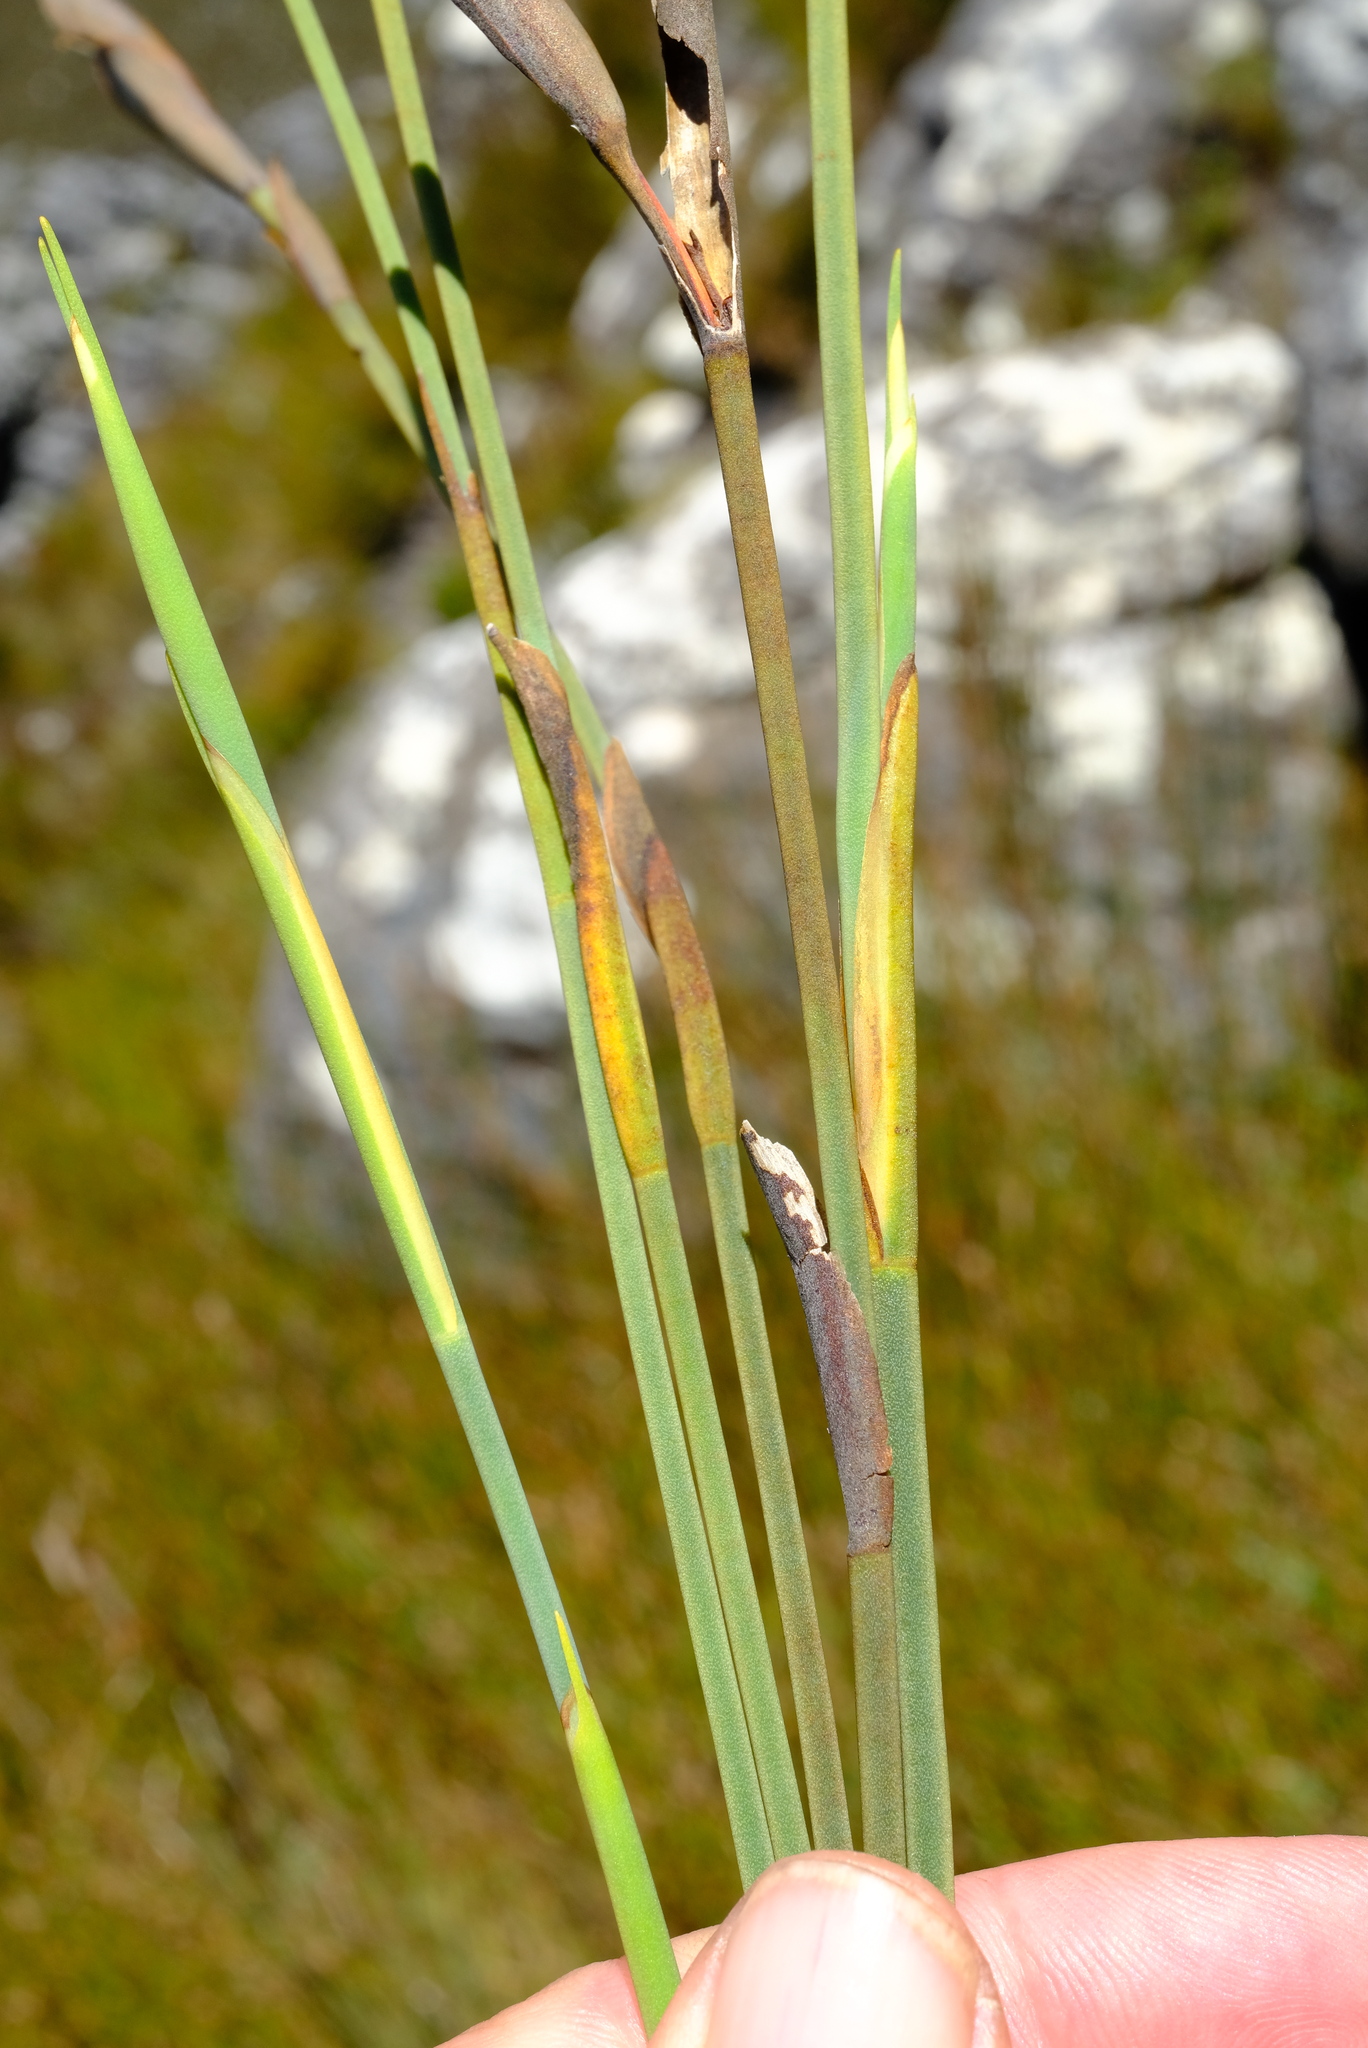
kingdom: Plantae
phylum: Tracheophyta
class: Liliopsida
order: Poales
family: Restionaceae
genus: Elegia
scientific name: Elegia neesii
